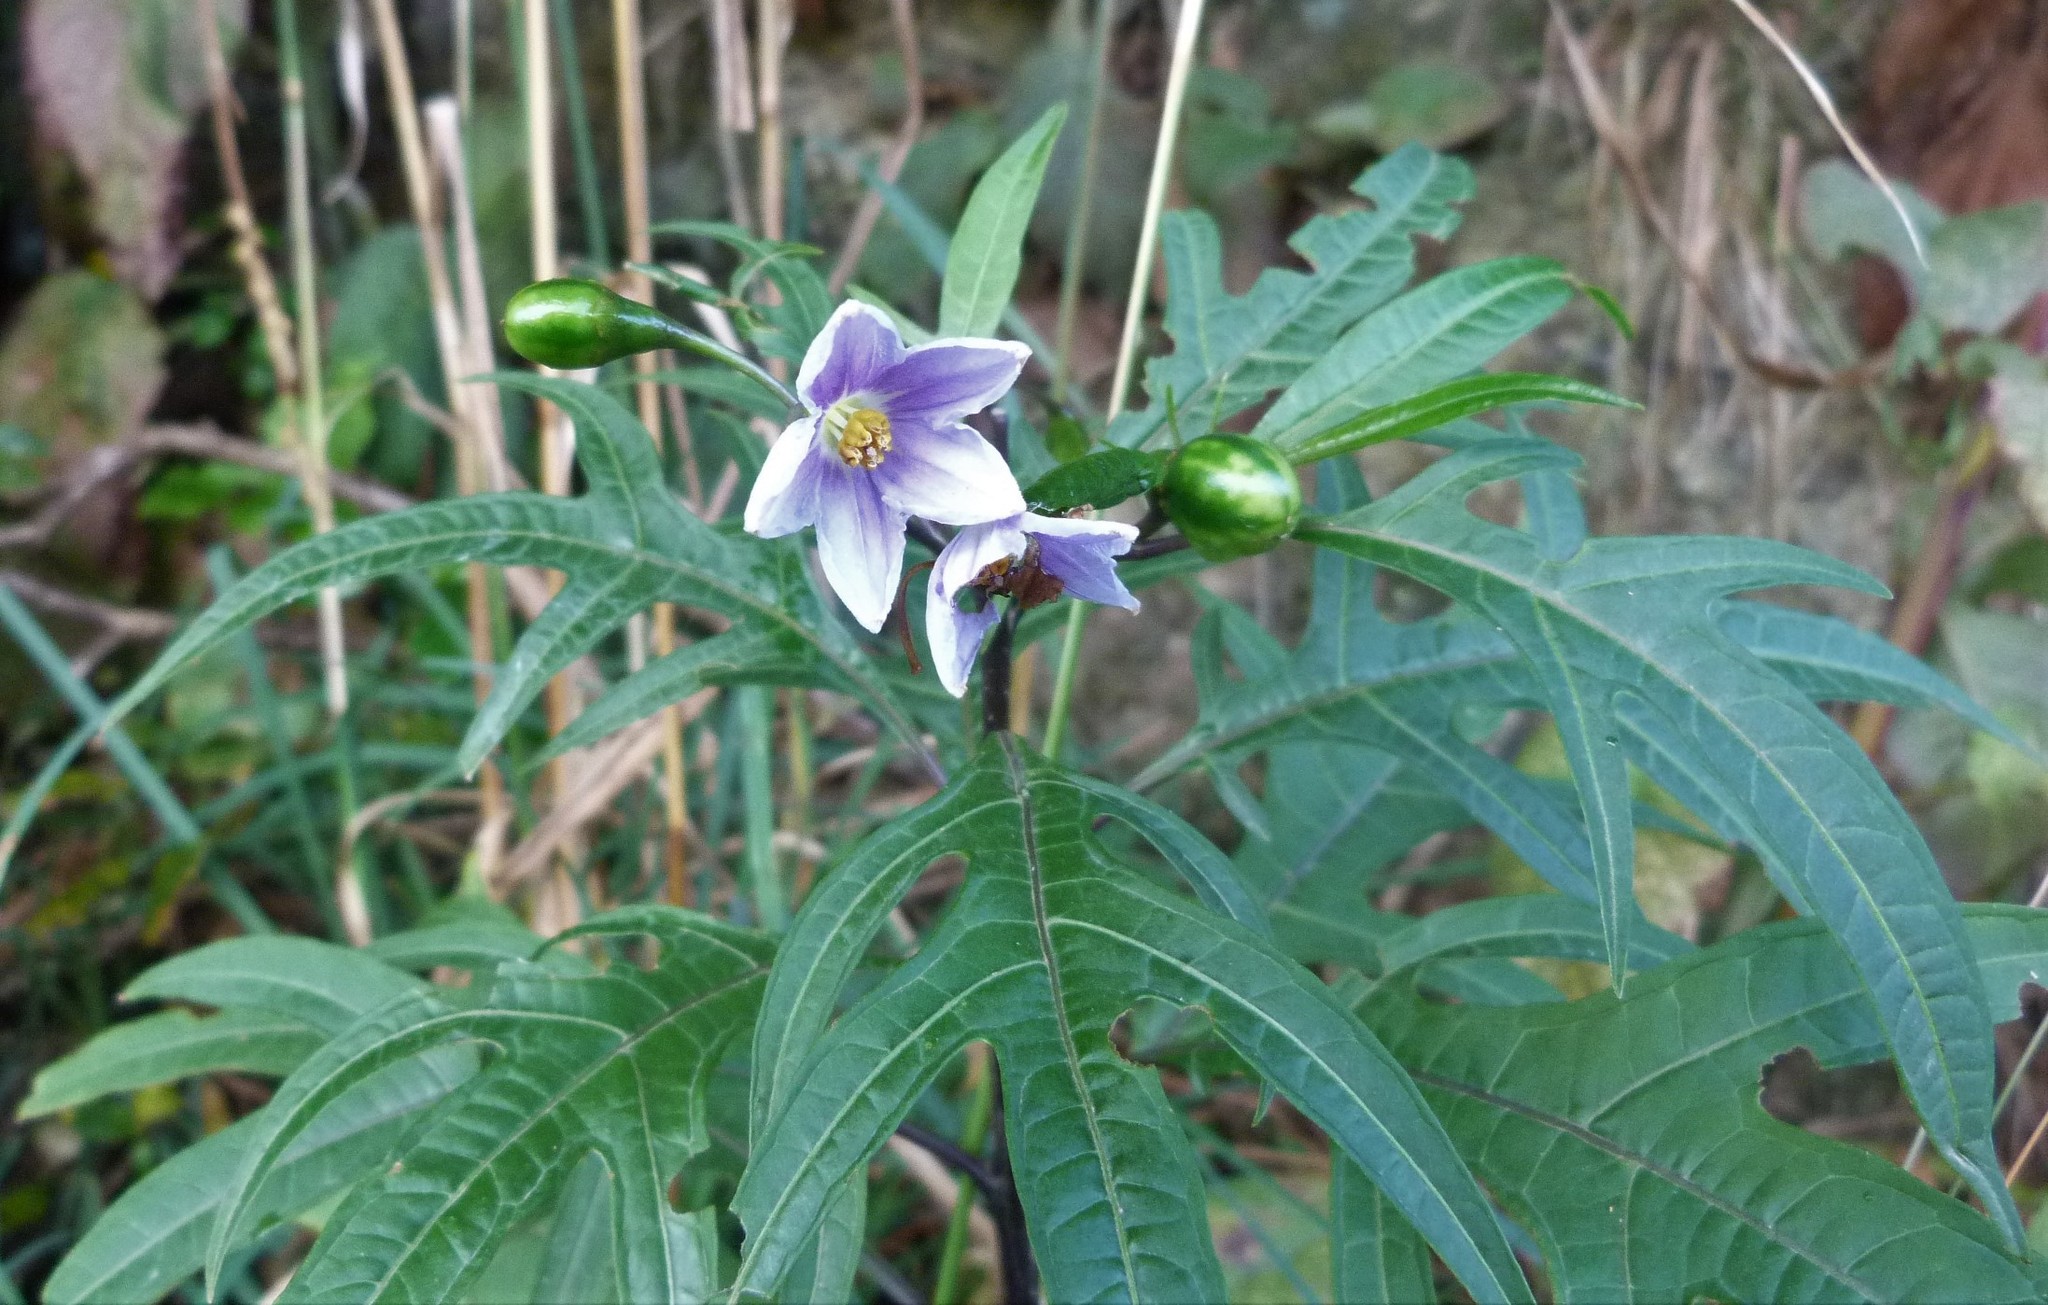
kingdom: Plantae
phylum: Tracheophyta
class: Magnoliopsida
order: Solanales
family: Solanaceae
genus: Solanum
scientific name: Solanum aviculare
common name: New zealand nightshade
